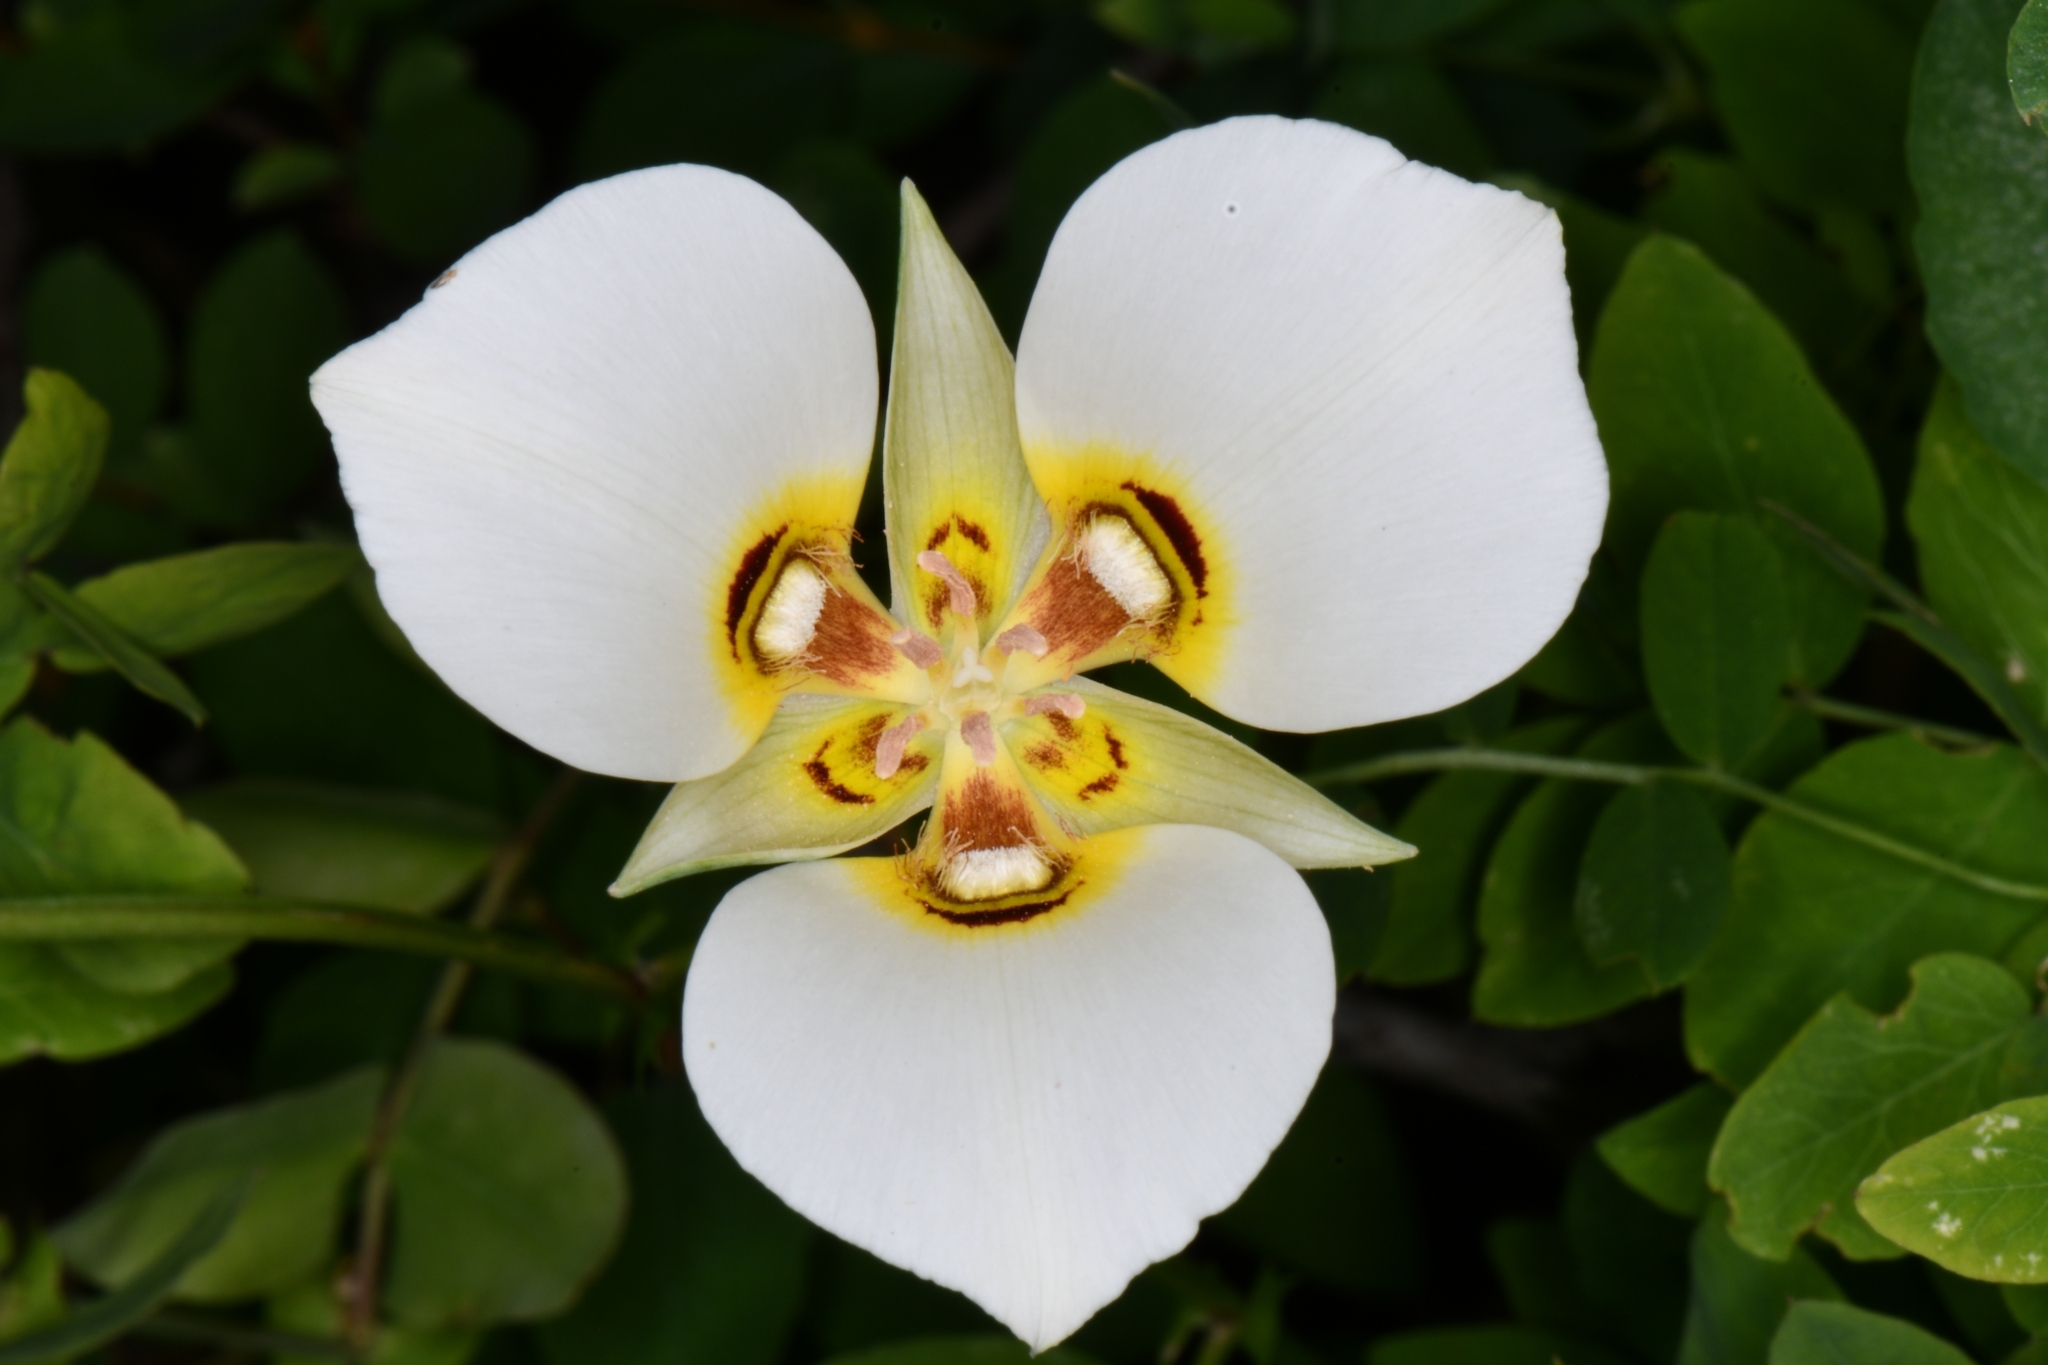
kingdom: Plantae
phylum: Tracheophyta
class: Liliopsida
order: Liliales
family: Liliaceae
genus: Calochortus
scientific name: Calochortus nuttallii
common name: Sego-lily
